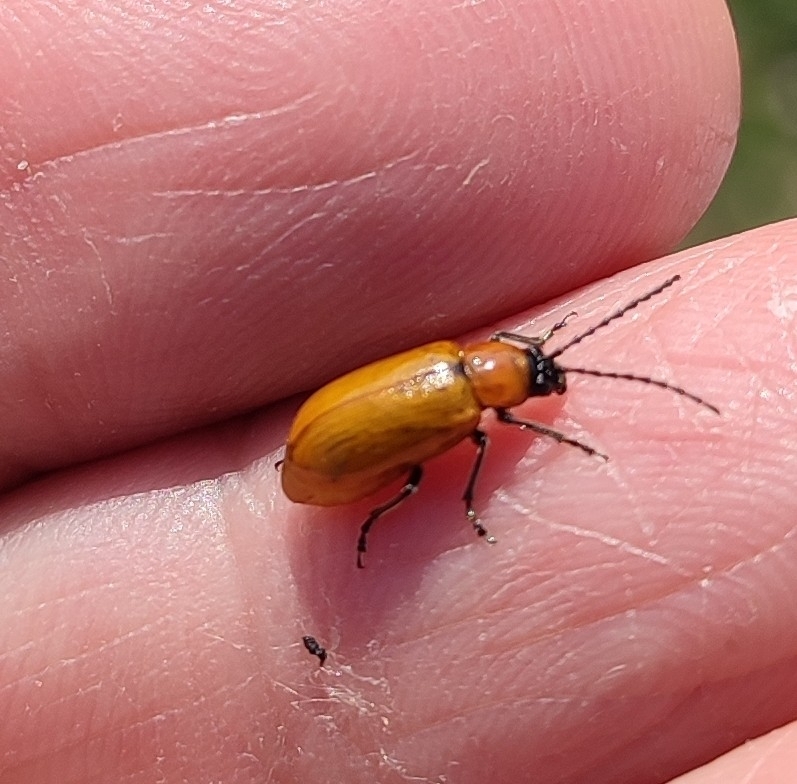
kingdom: Animalia
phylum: Arthropoda
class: Insecta
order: Coleoptera
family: Chrysomelidae
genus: Exosoma
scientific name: Exosoma lusitanicum
